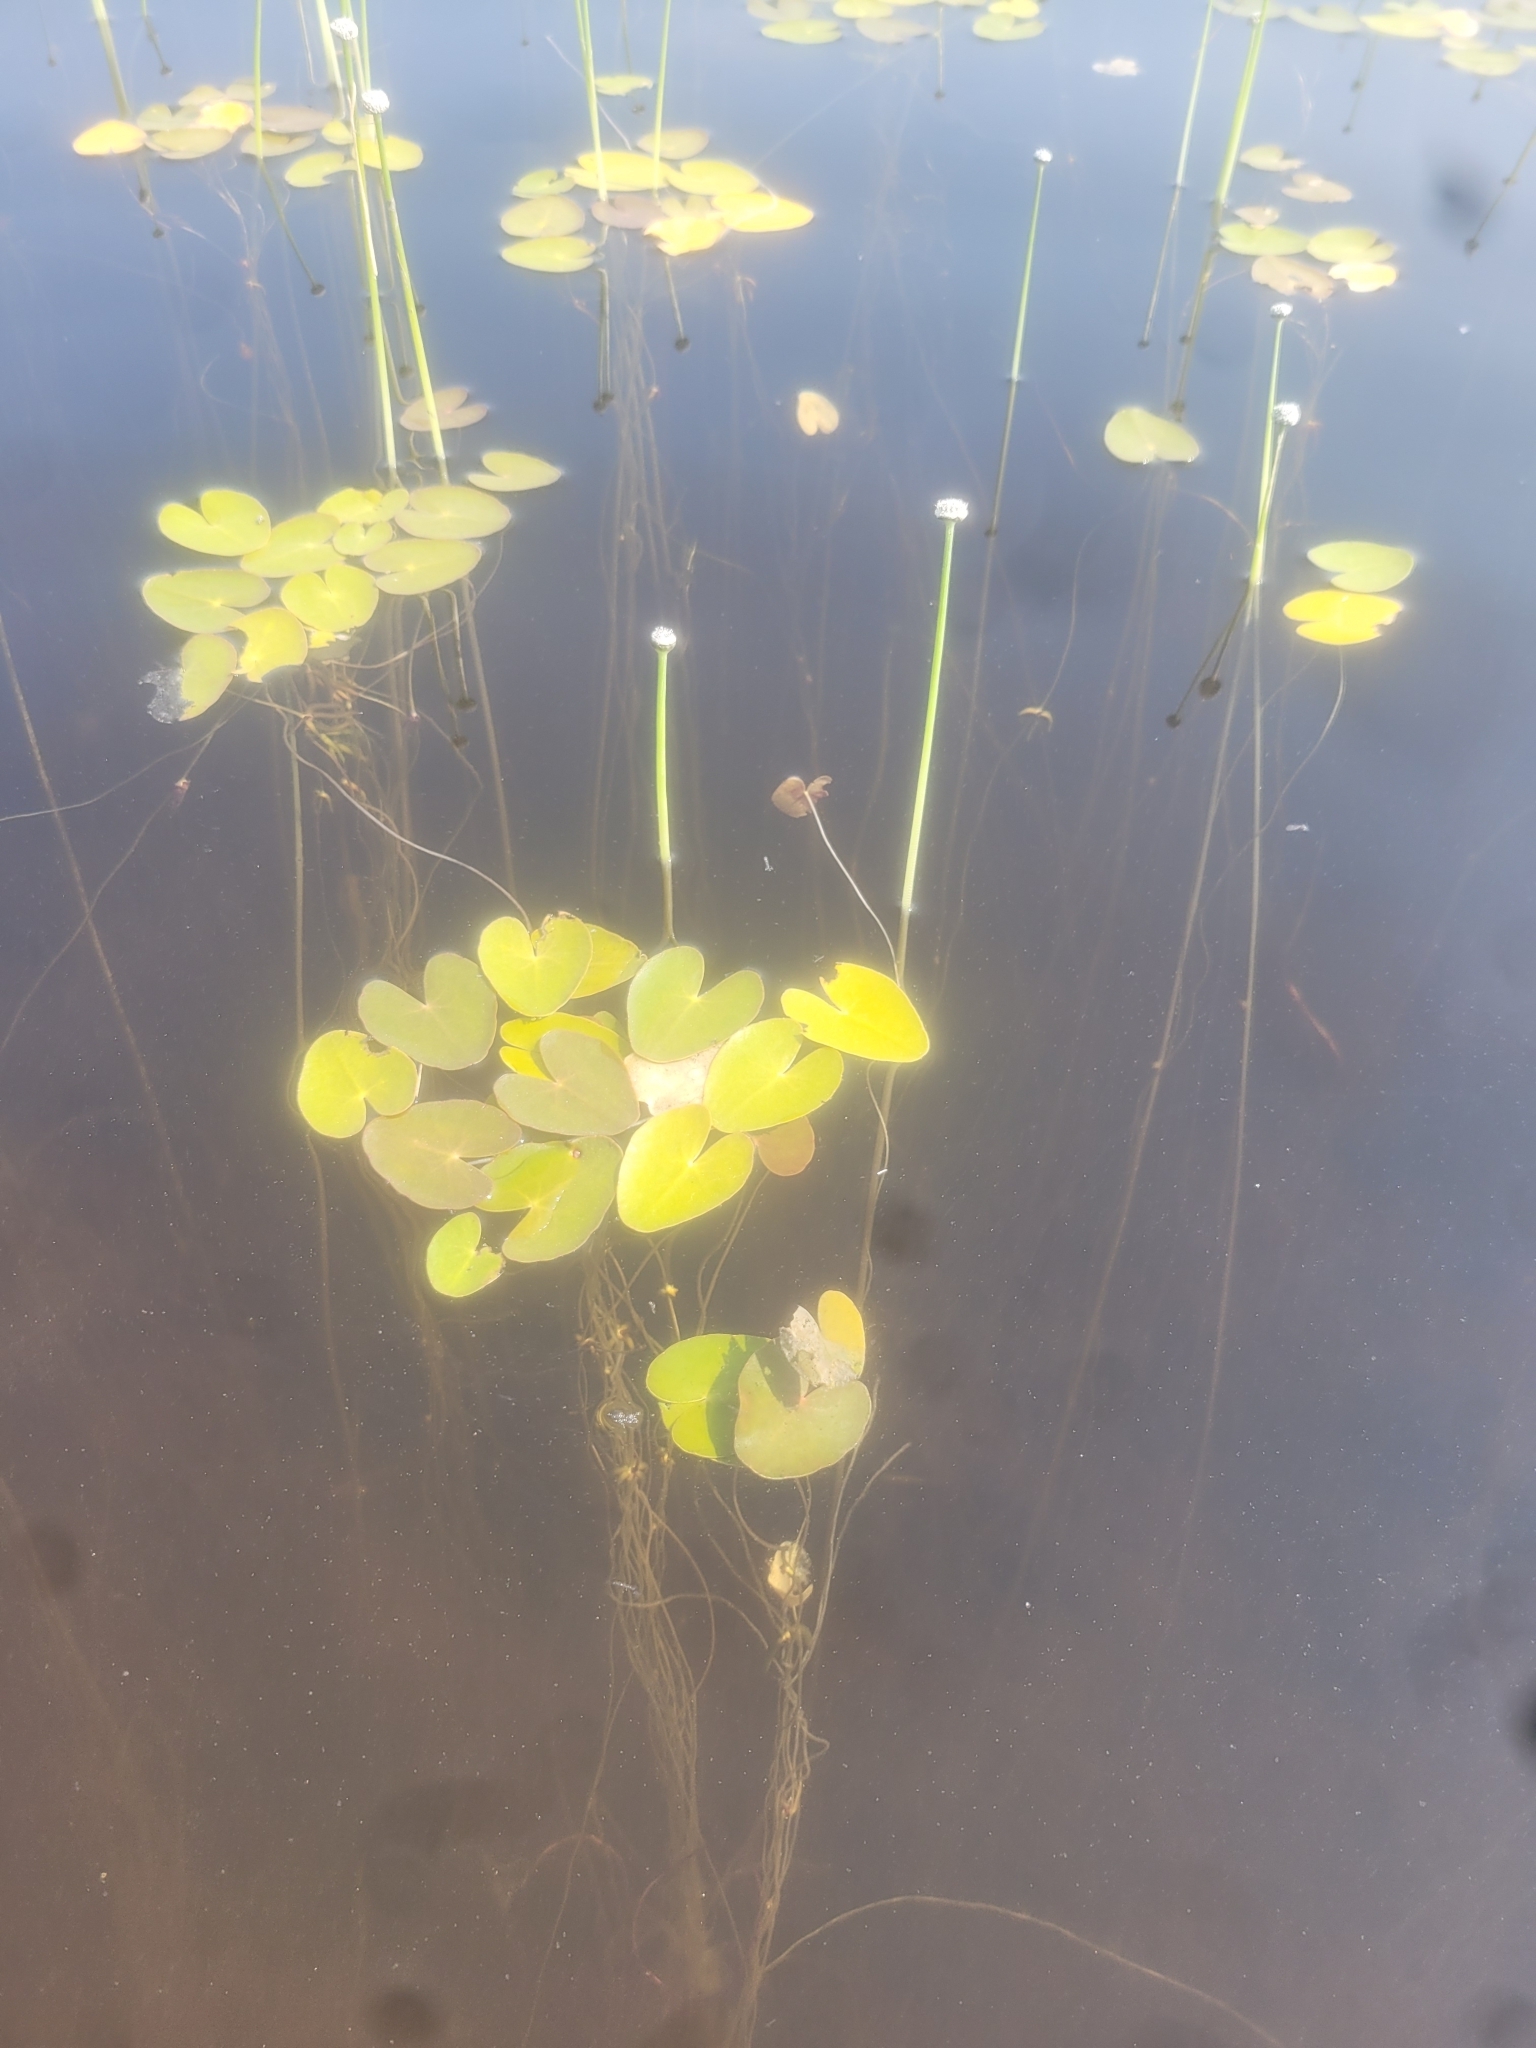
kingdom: Plantae
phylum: Tracheophyta
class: Magnoliopsida
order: Asterales
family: Menyanthaceae
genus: Nymphoides
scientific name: Nymphoides cordata
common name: Eight-angled floatingheart
